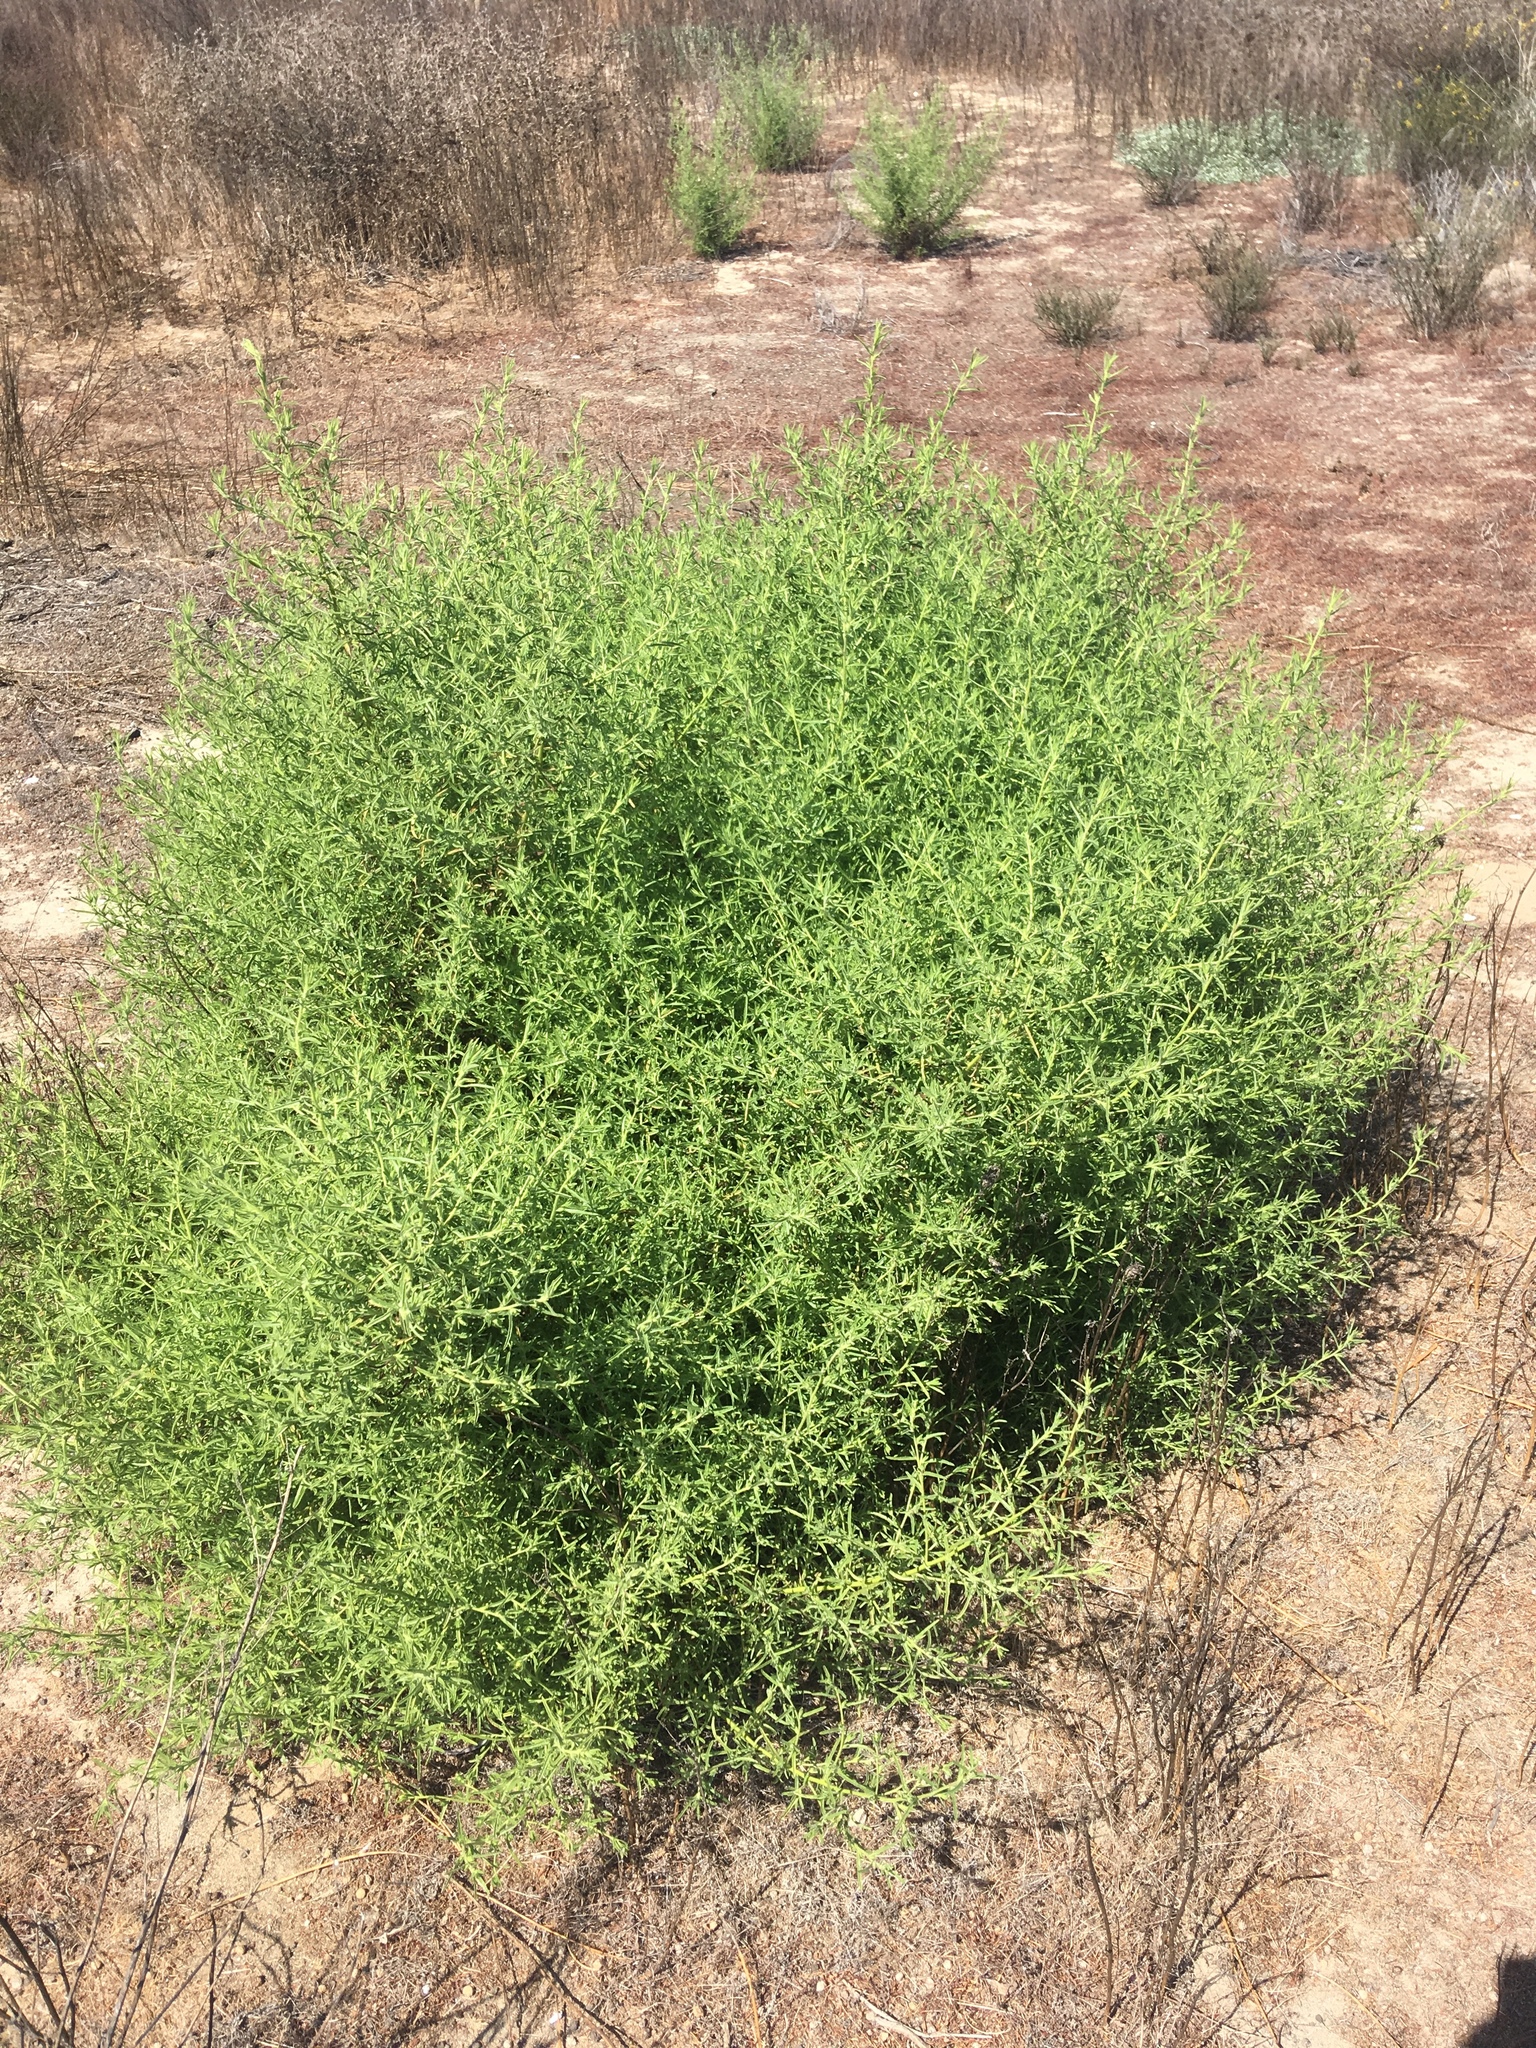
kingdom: Plantae
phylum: Tracheophyta
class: Magnoliopsida
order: Asterales
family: Asteraceae
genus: Dittrichia
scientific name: Dittrichia graveolens
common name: Stinking fleabane
